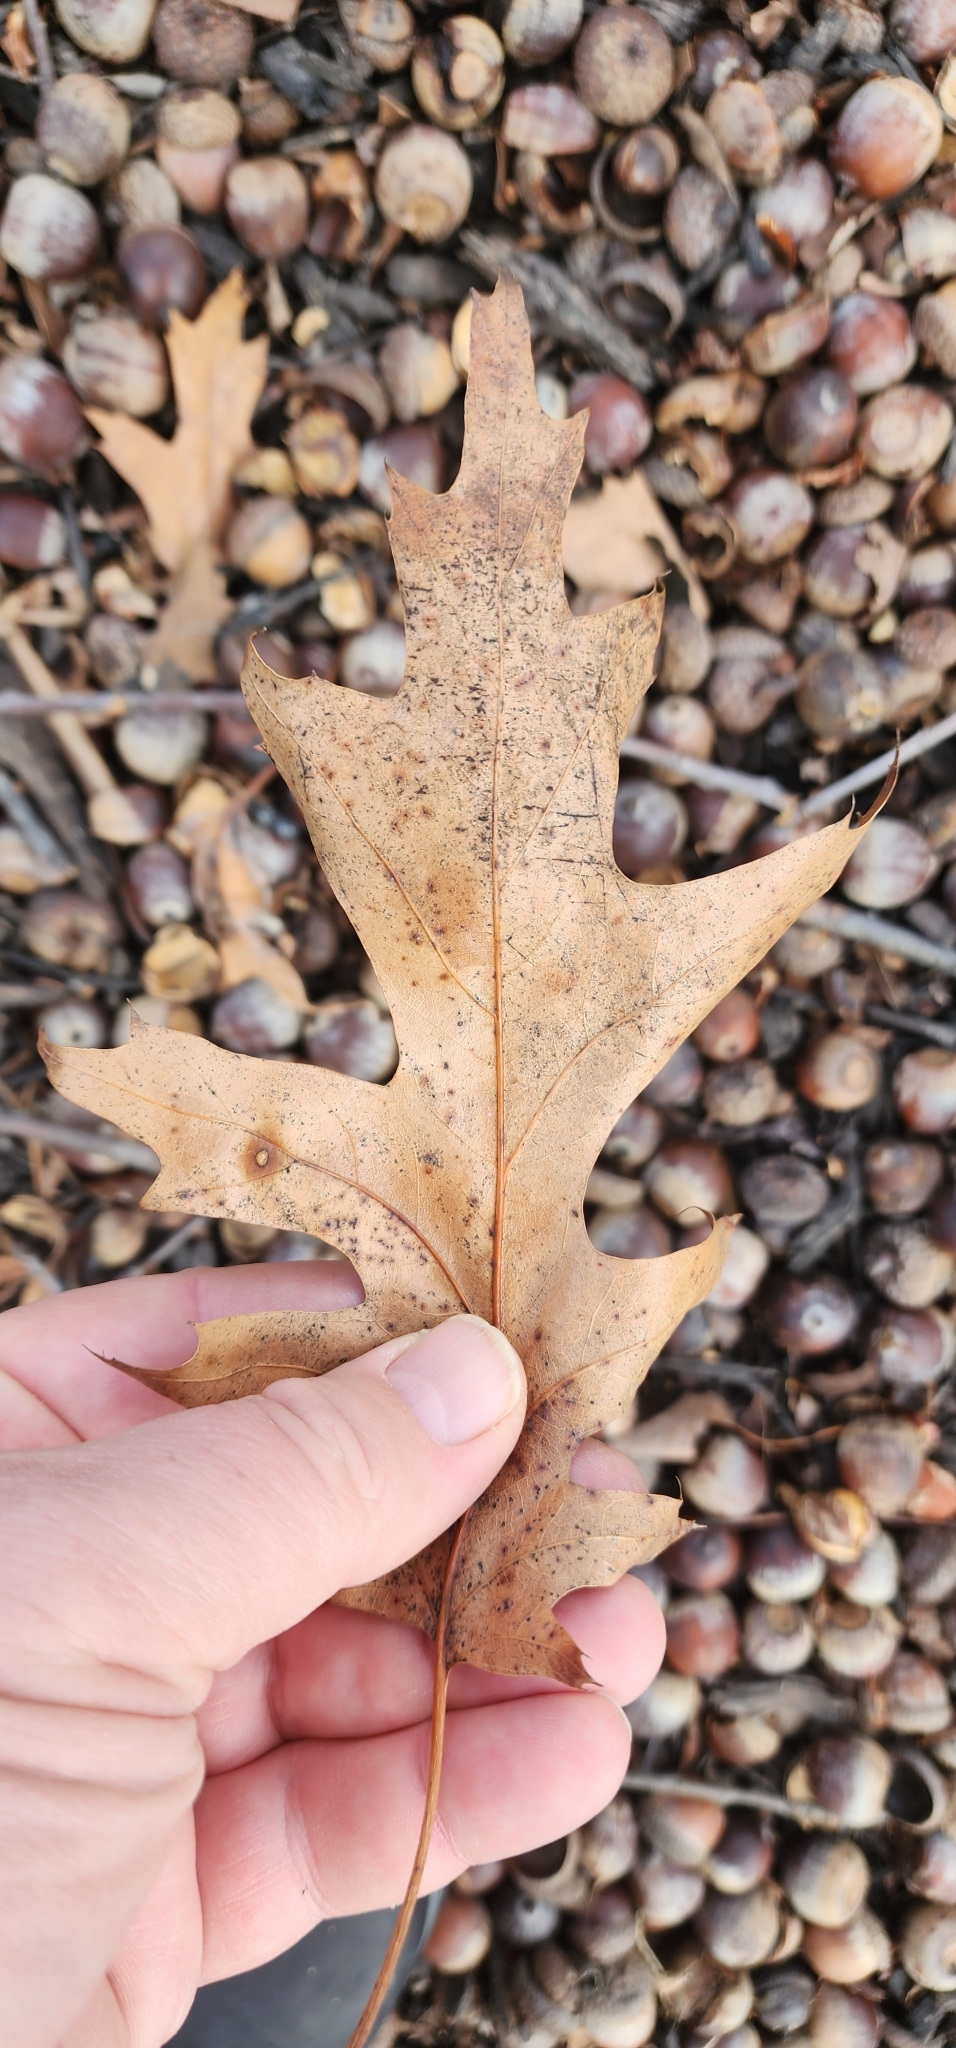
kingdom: Plantae
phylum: Tracheophyta
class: Magnoliopsida
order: Fagales
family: Fagaceae
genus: Quercus
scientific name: Quercus palustris
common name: Pin oak
